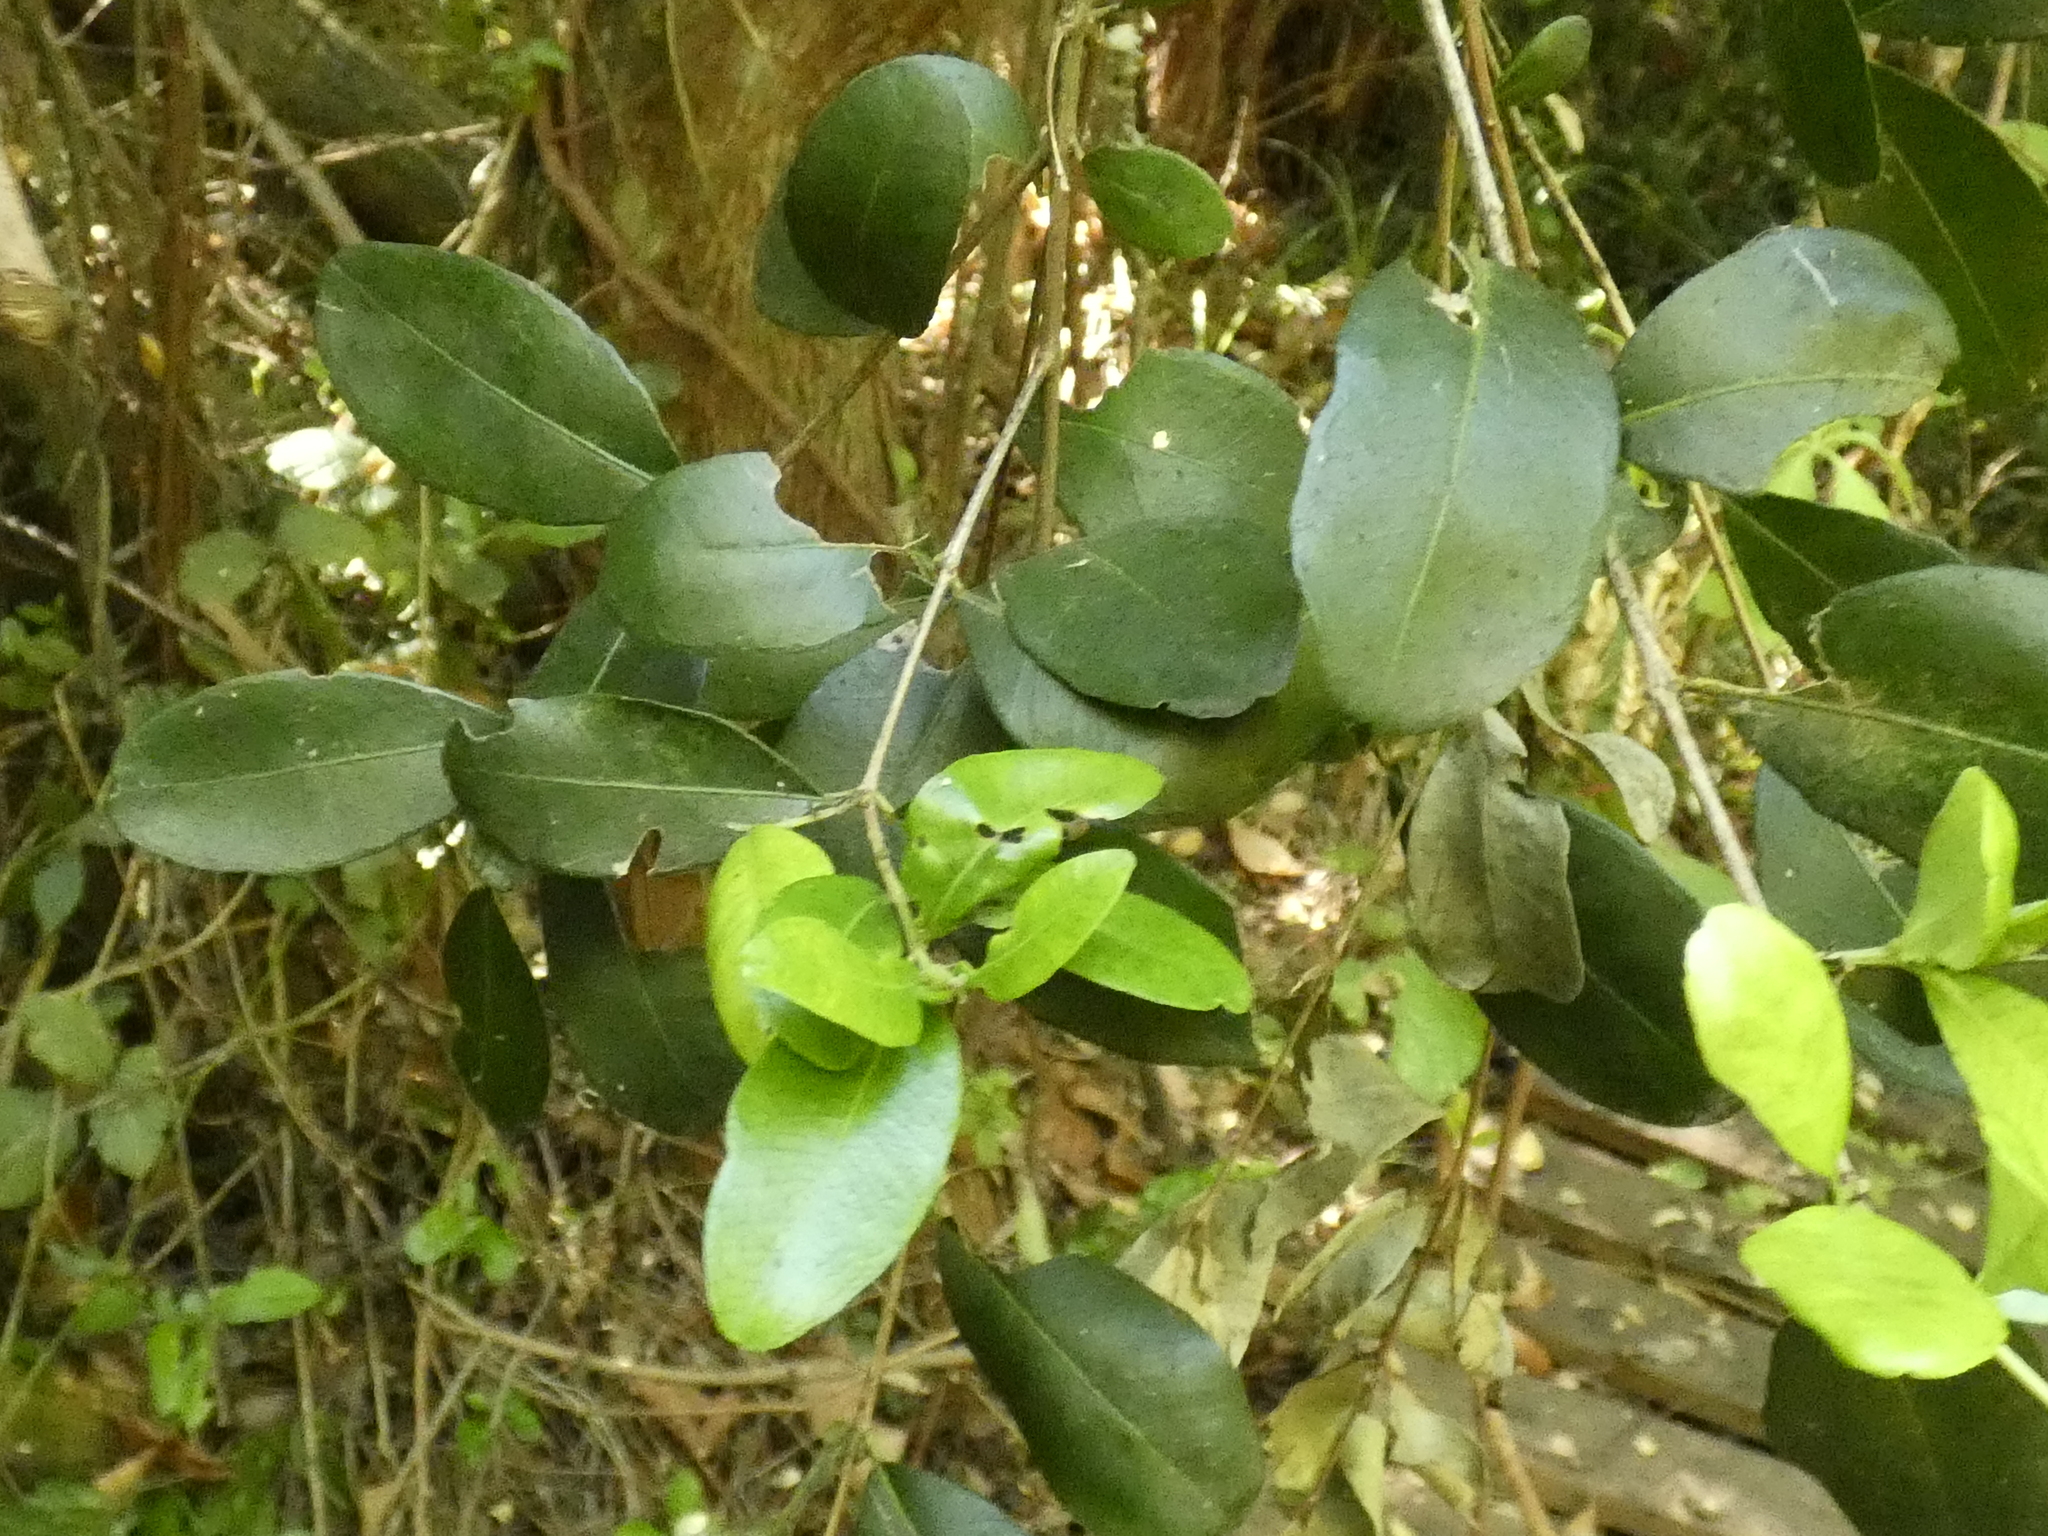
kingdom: Plantae
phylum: Tracheophyta
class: Magnoliopsida
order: Myrtales
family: Myrtaceae
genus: Blepharocalyx
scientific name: Blepharocalyx cruckshanksii
